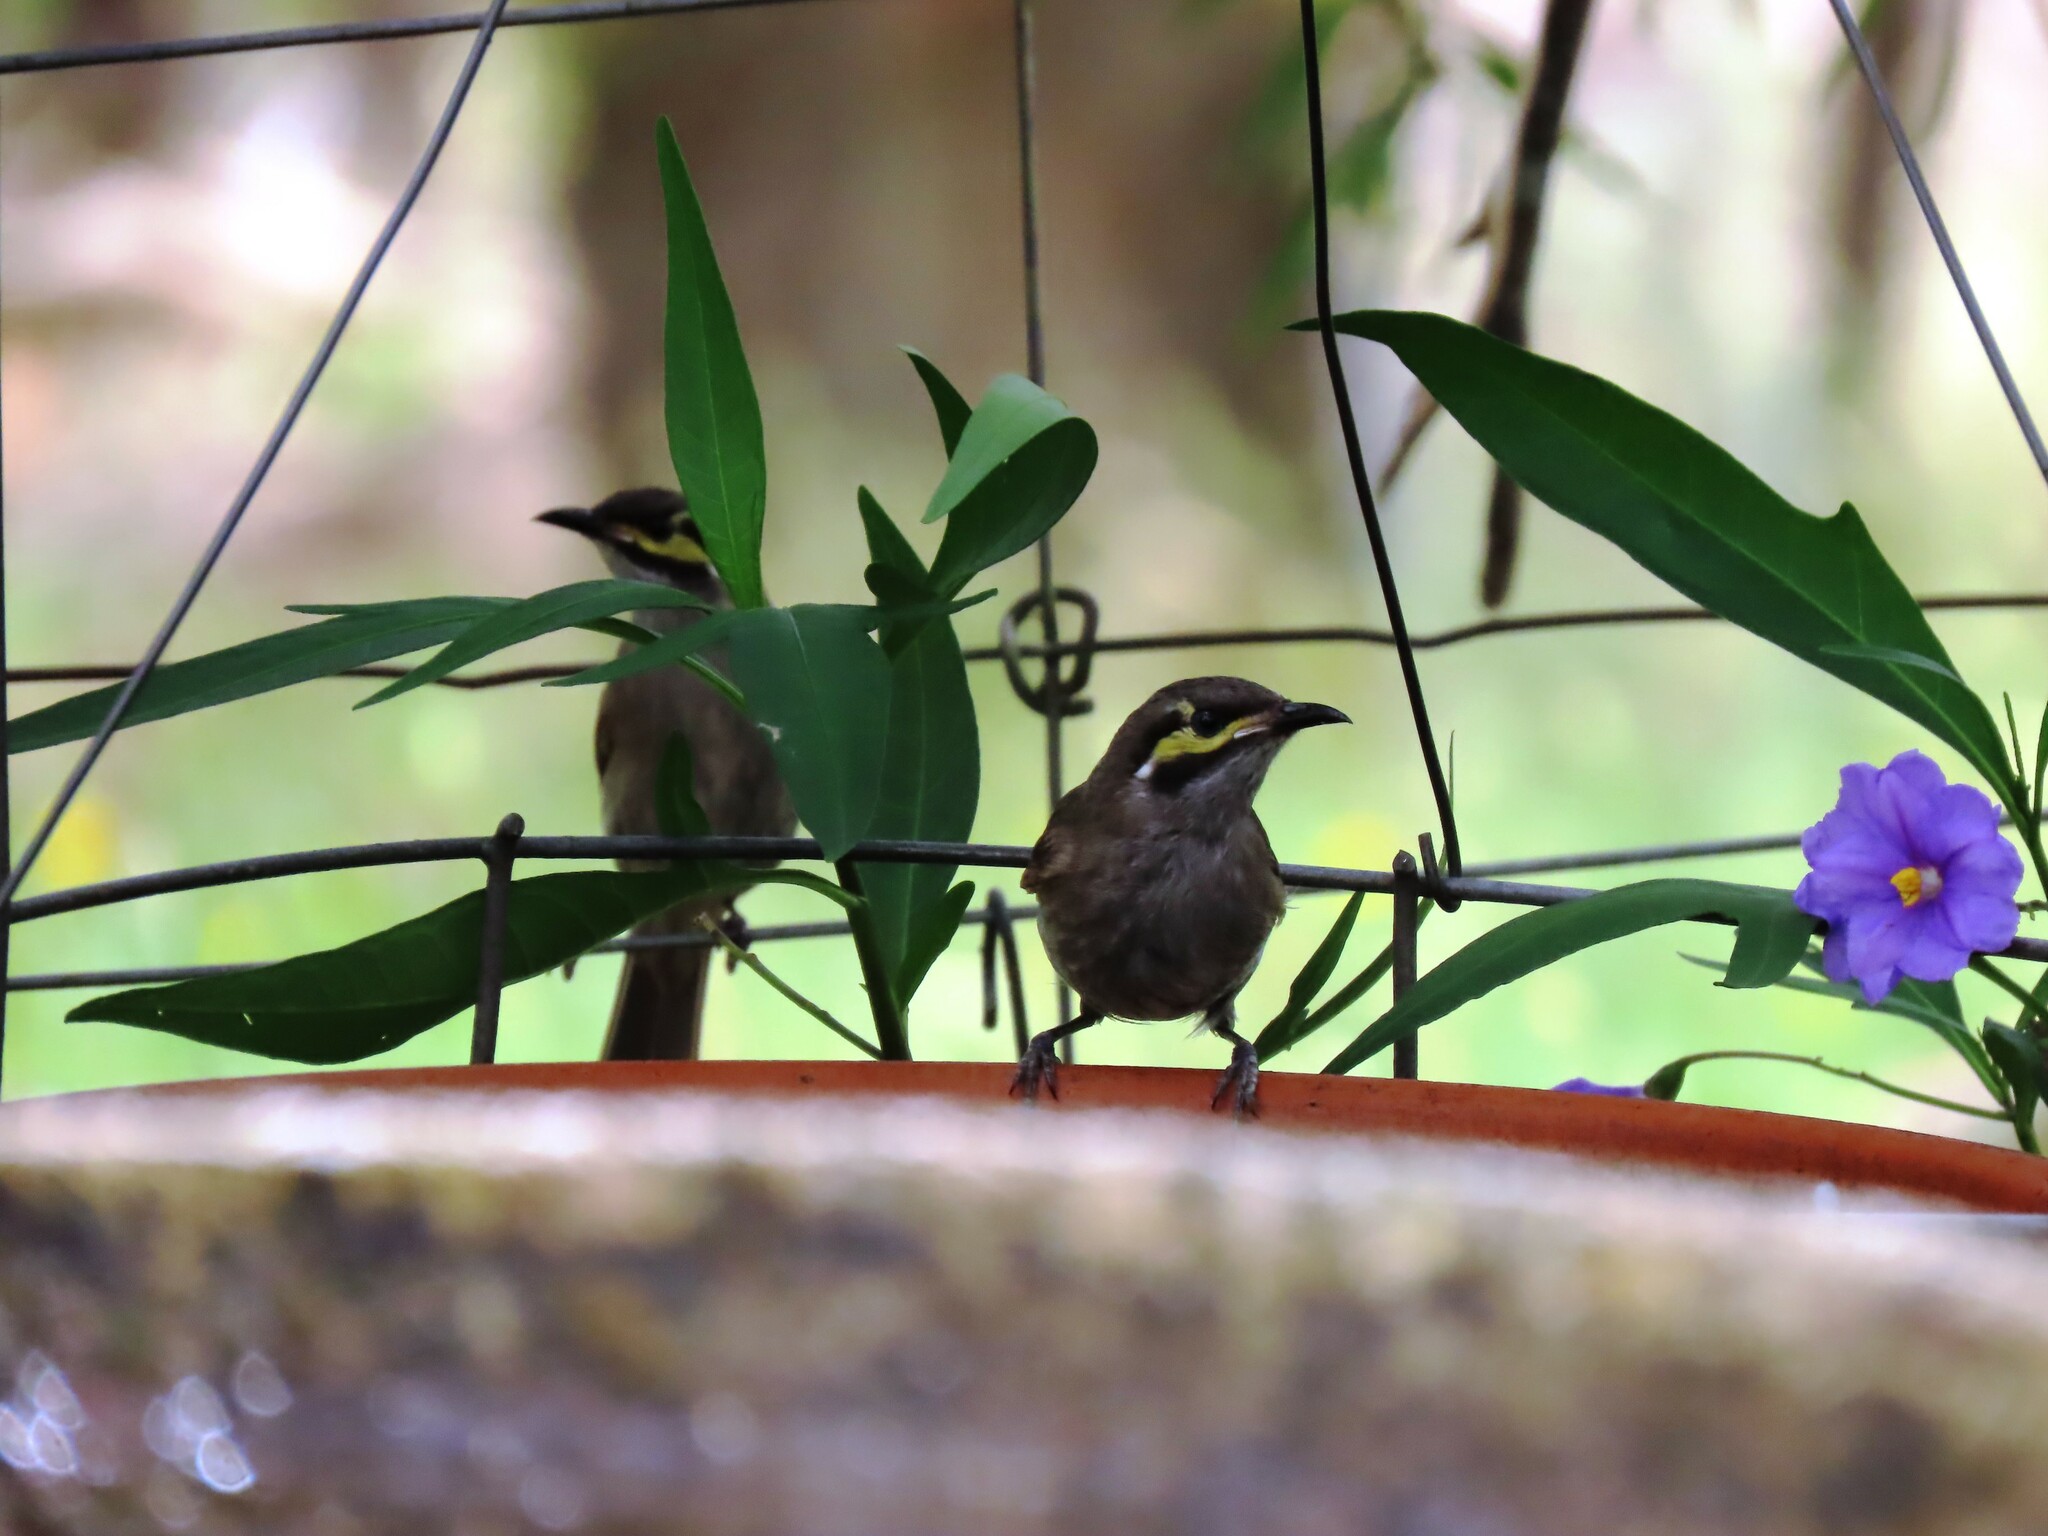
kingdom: Animalia
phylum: Chordata
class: Aves
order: Passeriformes
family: Meliphagidae
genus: Caligavis
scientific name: Caligavis chrysops
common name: Yellow-faced honeyeater
